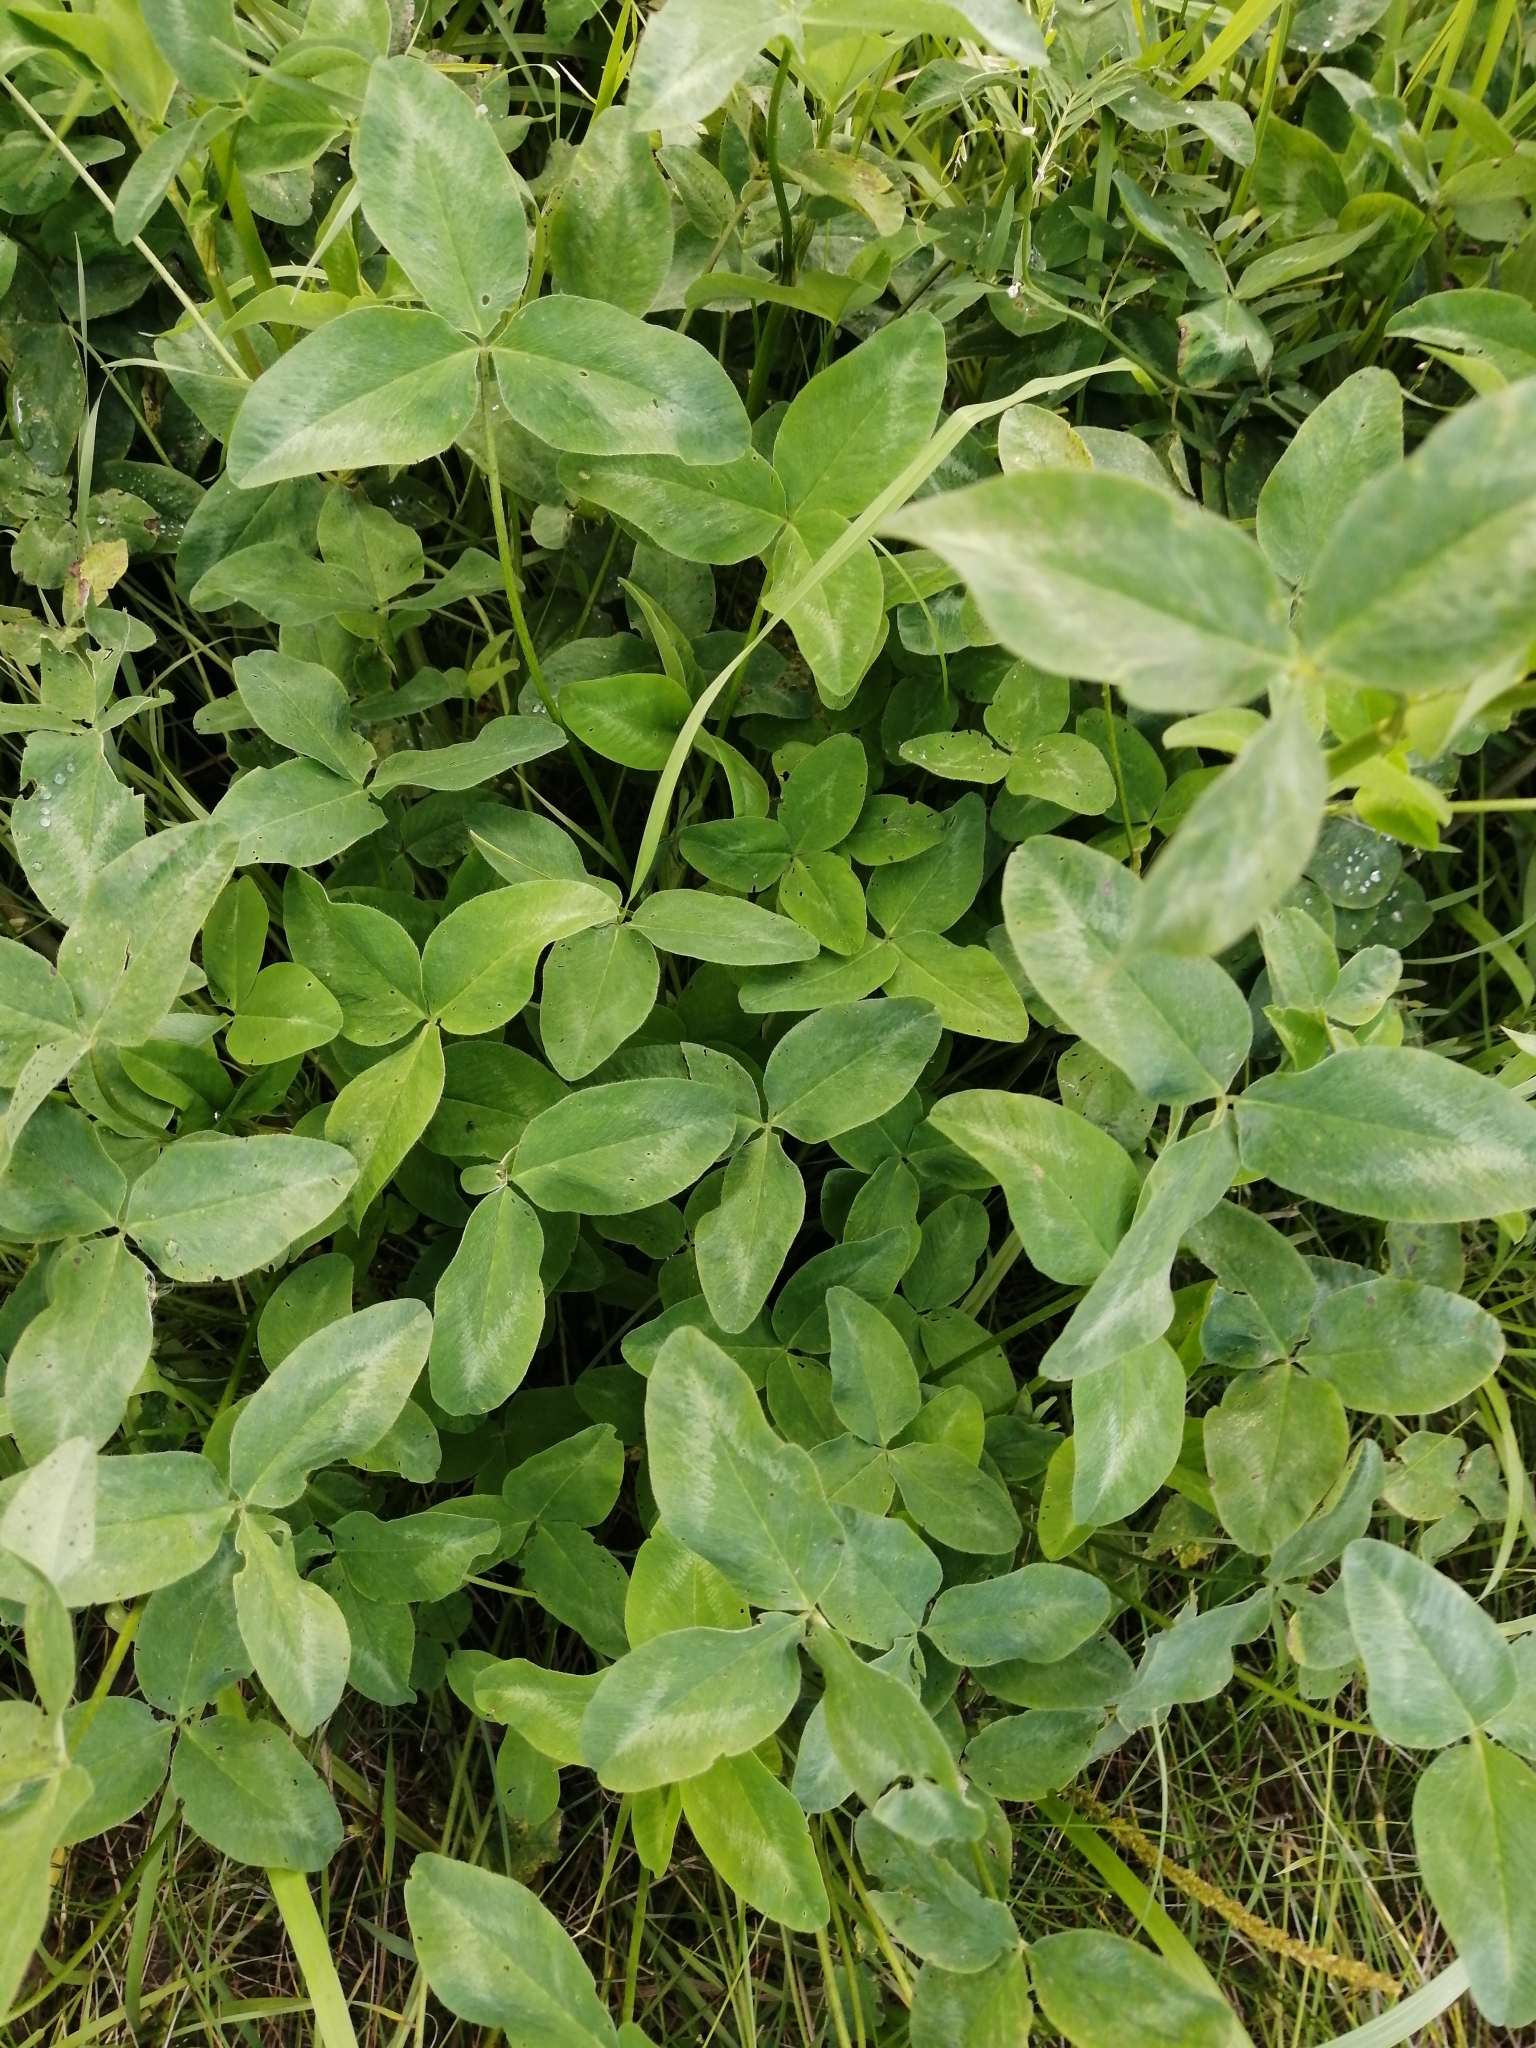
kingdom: Plantae
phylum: Tracheophyta
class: Magnoliopsida
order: Fabales
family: Fabaceae
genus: Trifolium
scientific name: Trifolium pratense
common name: Red clover
